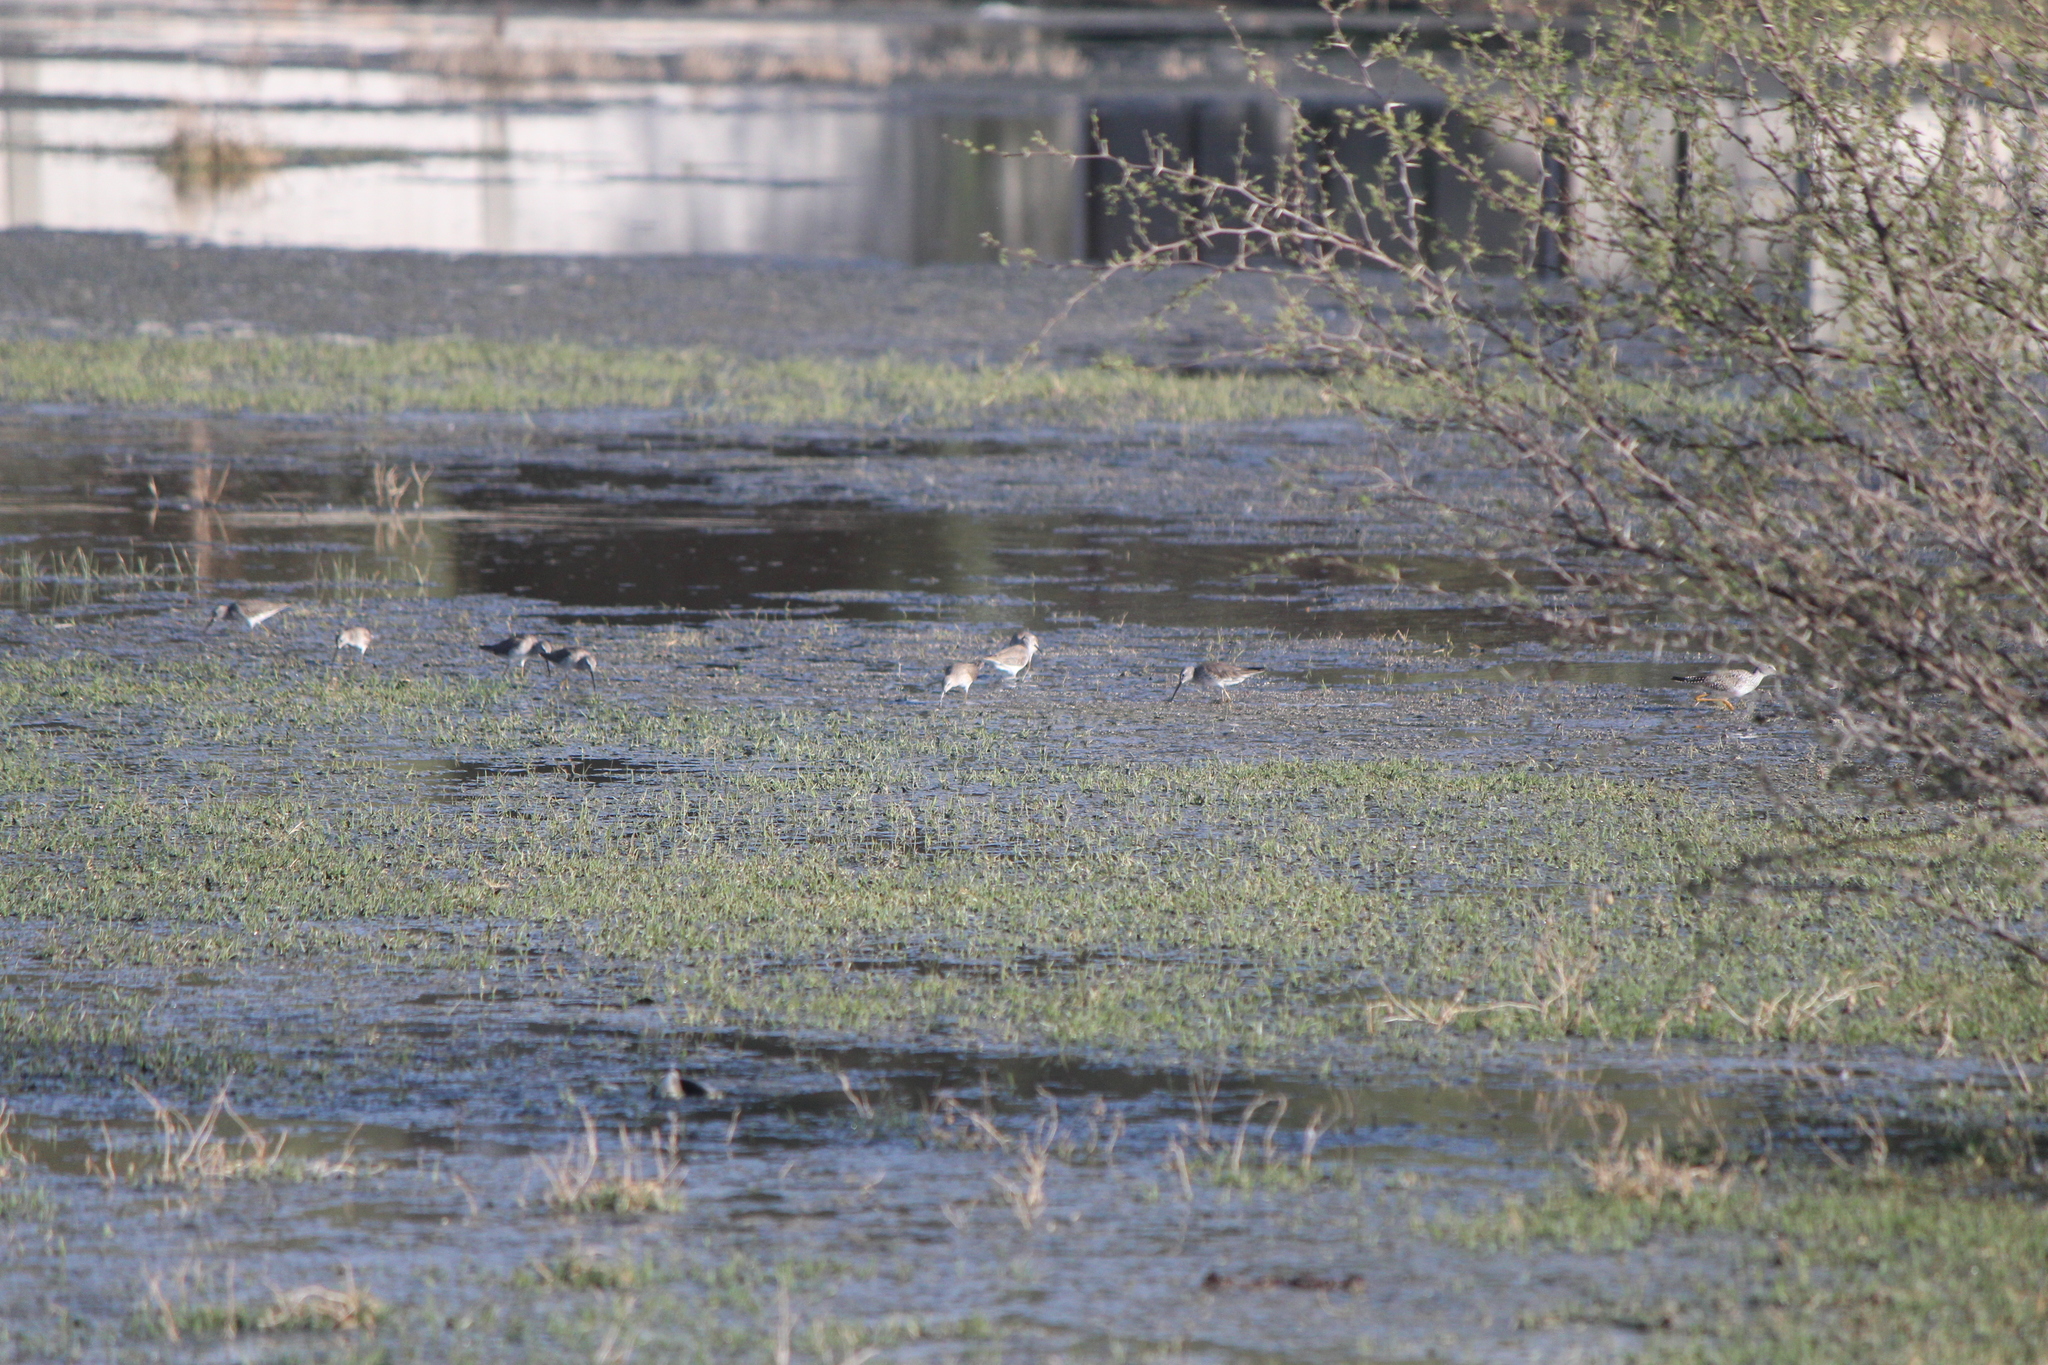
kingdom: Animalia
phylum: Chordata
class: Aves
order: Charadriiformes
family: Scolopacidae
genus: Calidris
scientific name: Calidris himantopus
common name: Stilt sandpiper
